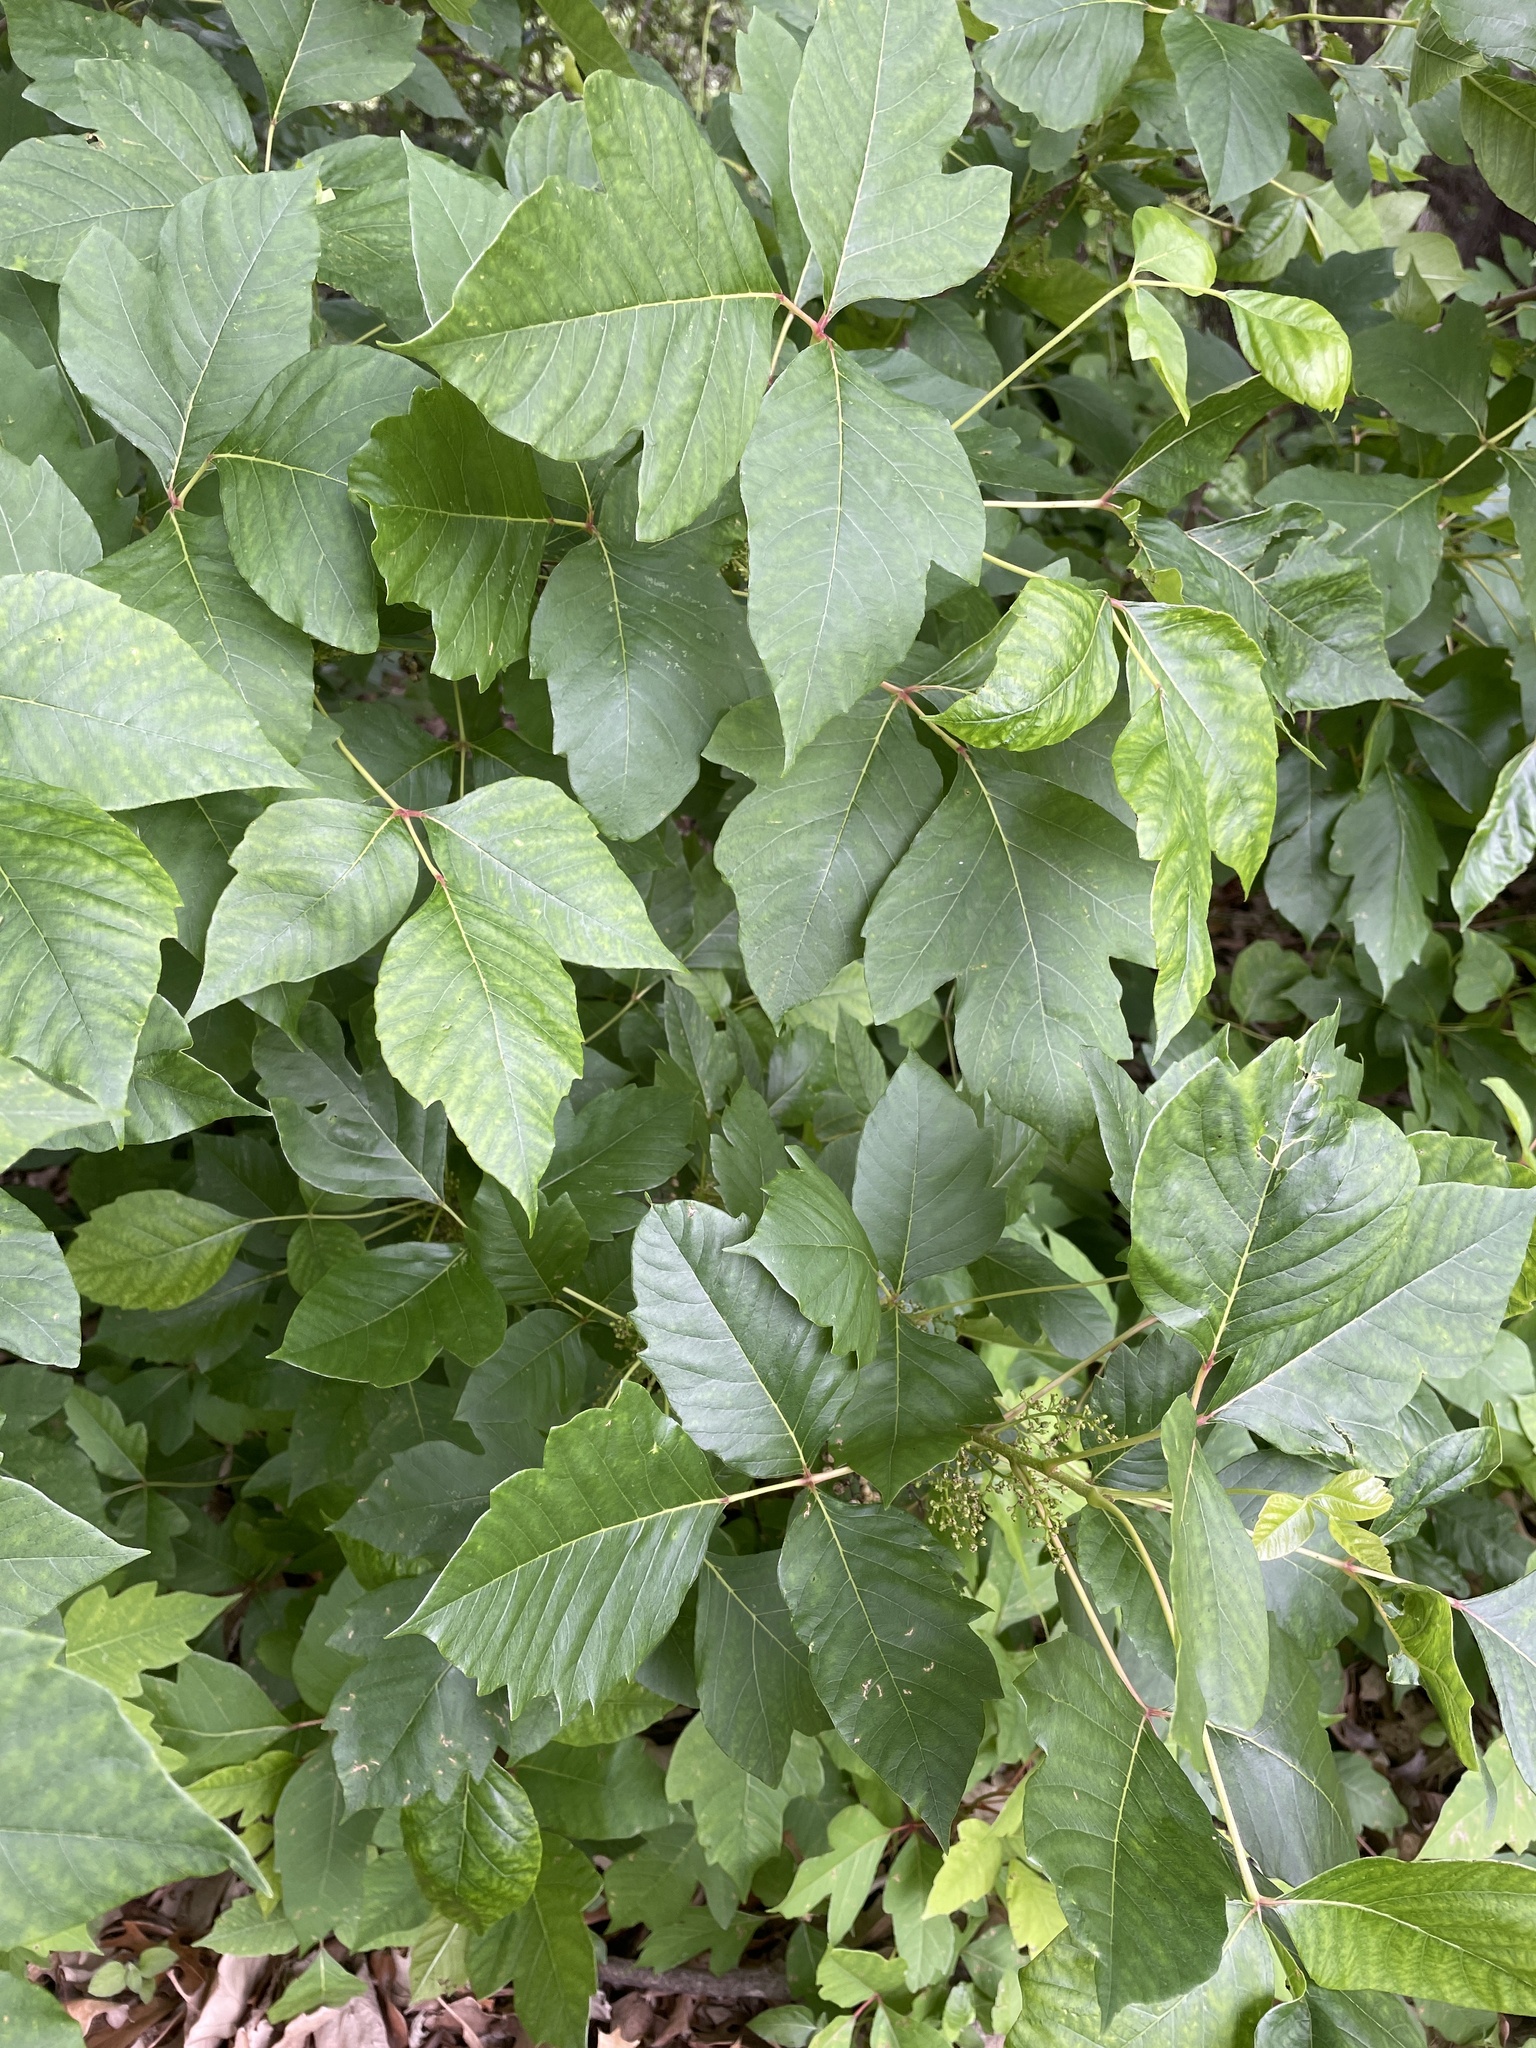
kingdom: Plantae
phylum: Tracheophyta
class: Magnoliopsida
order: Sapindales
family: Anacardiaceae
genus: Toxicodendron
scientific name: Toxicodendron radicans
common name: Poison ivy
